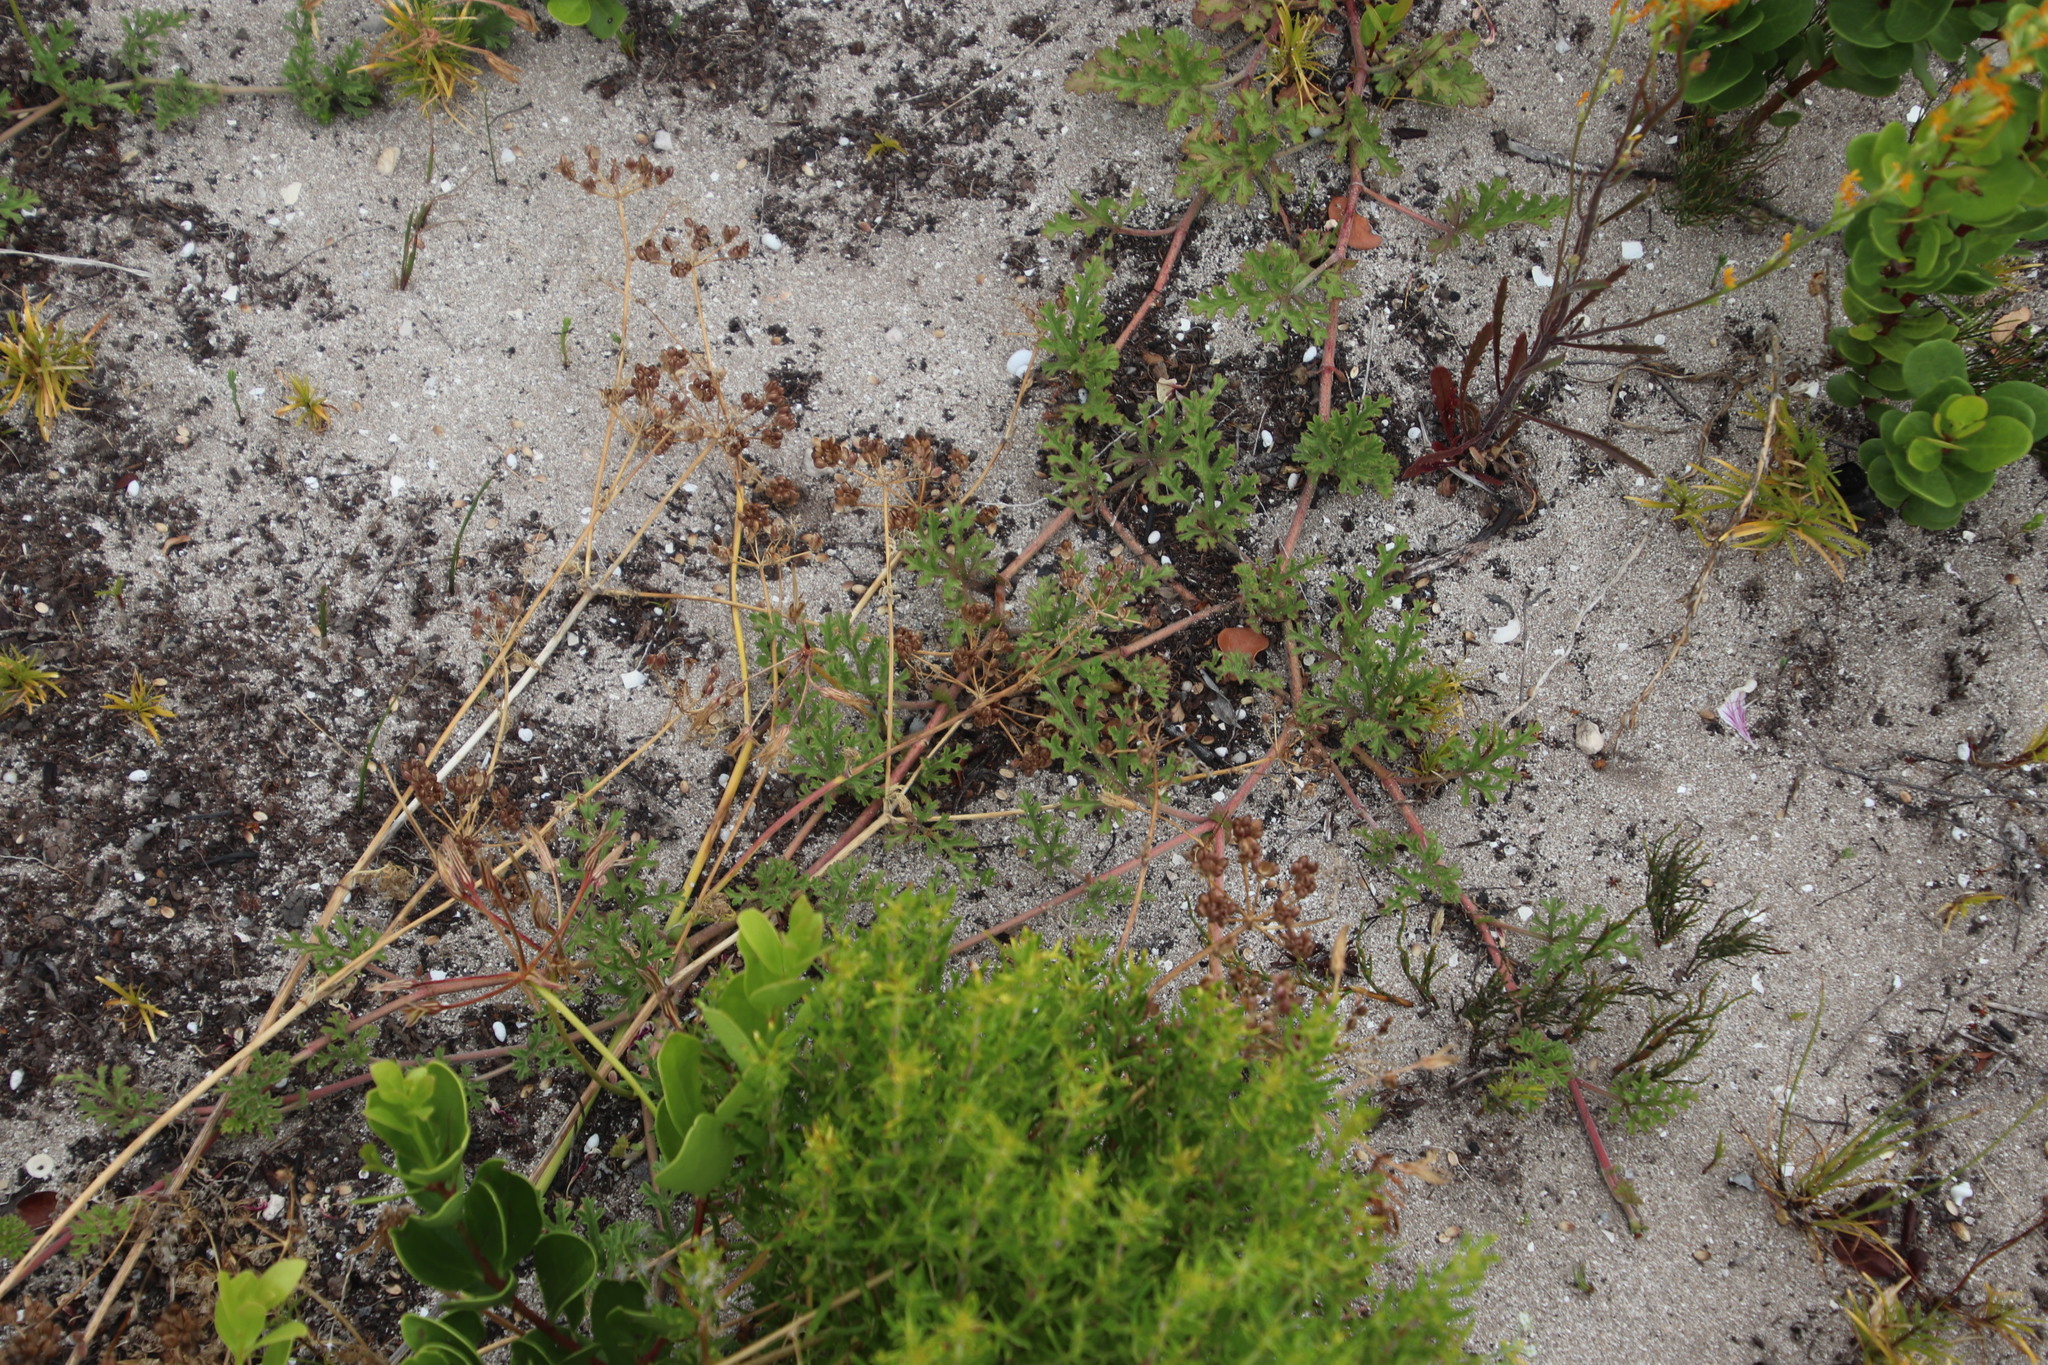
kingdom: Plantae
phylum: Tracheophyta
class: Magnoliopsida
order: Geraniales
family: Geraniaceae
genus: Pelargonium
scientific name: Pelargonium longicaule
